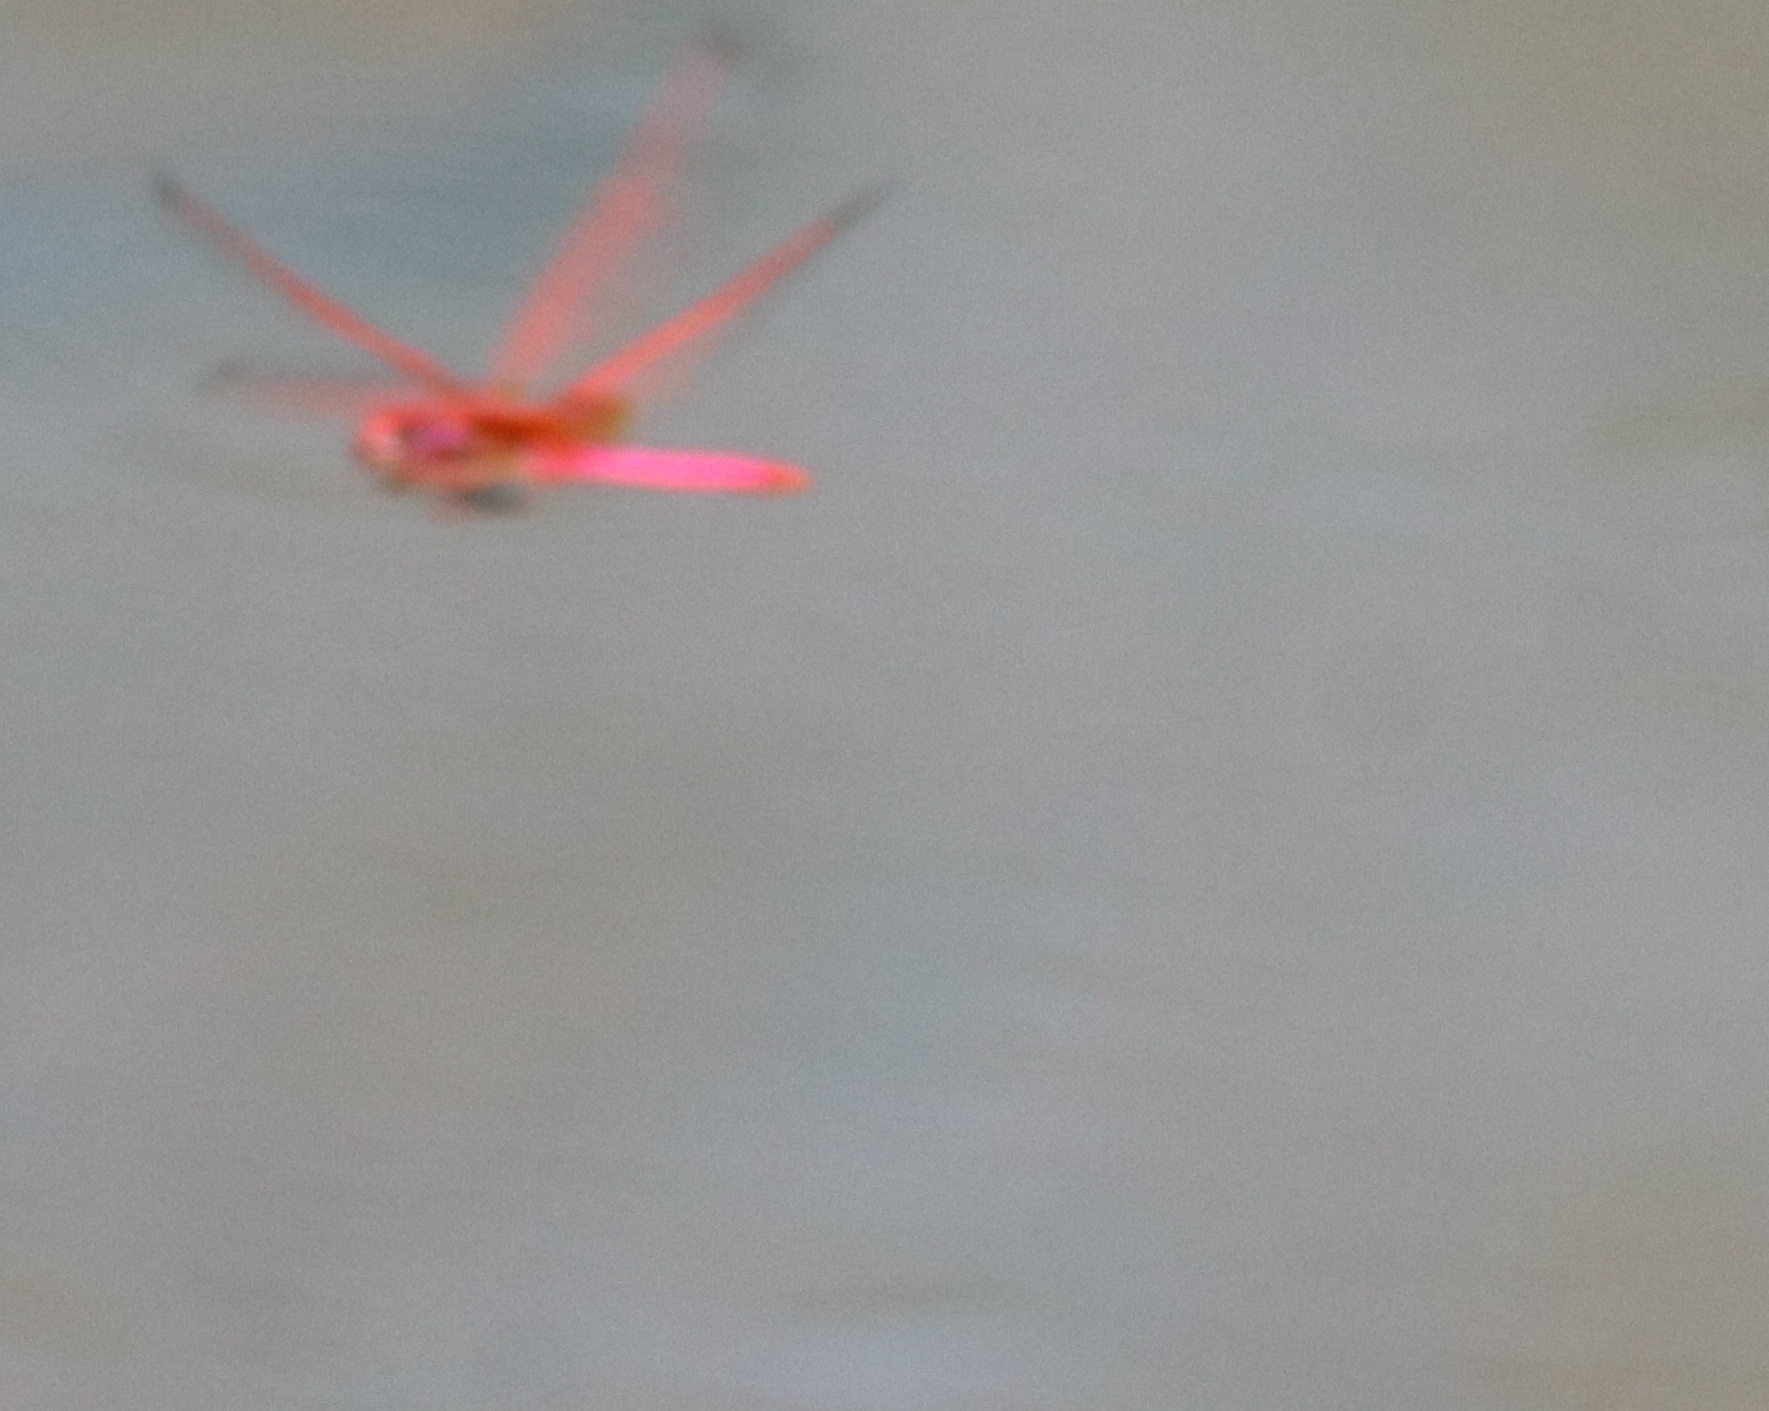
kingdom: Animalia
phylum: Arthropoda
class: Insecta
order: Odonata
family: Libellulidae
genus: Trithemis
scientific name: Trithemis aurora
